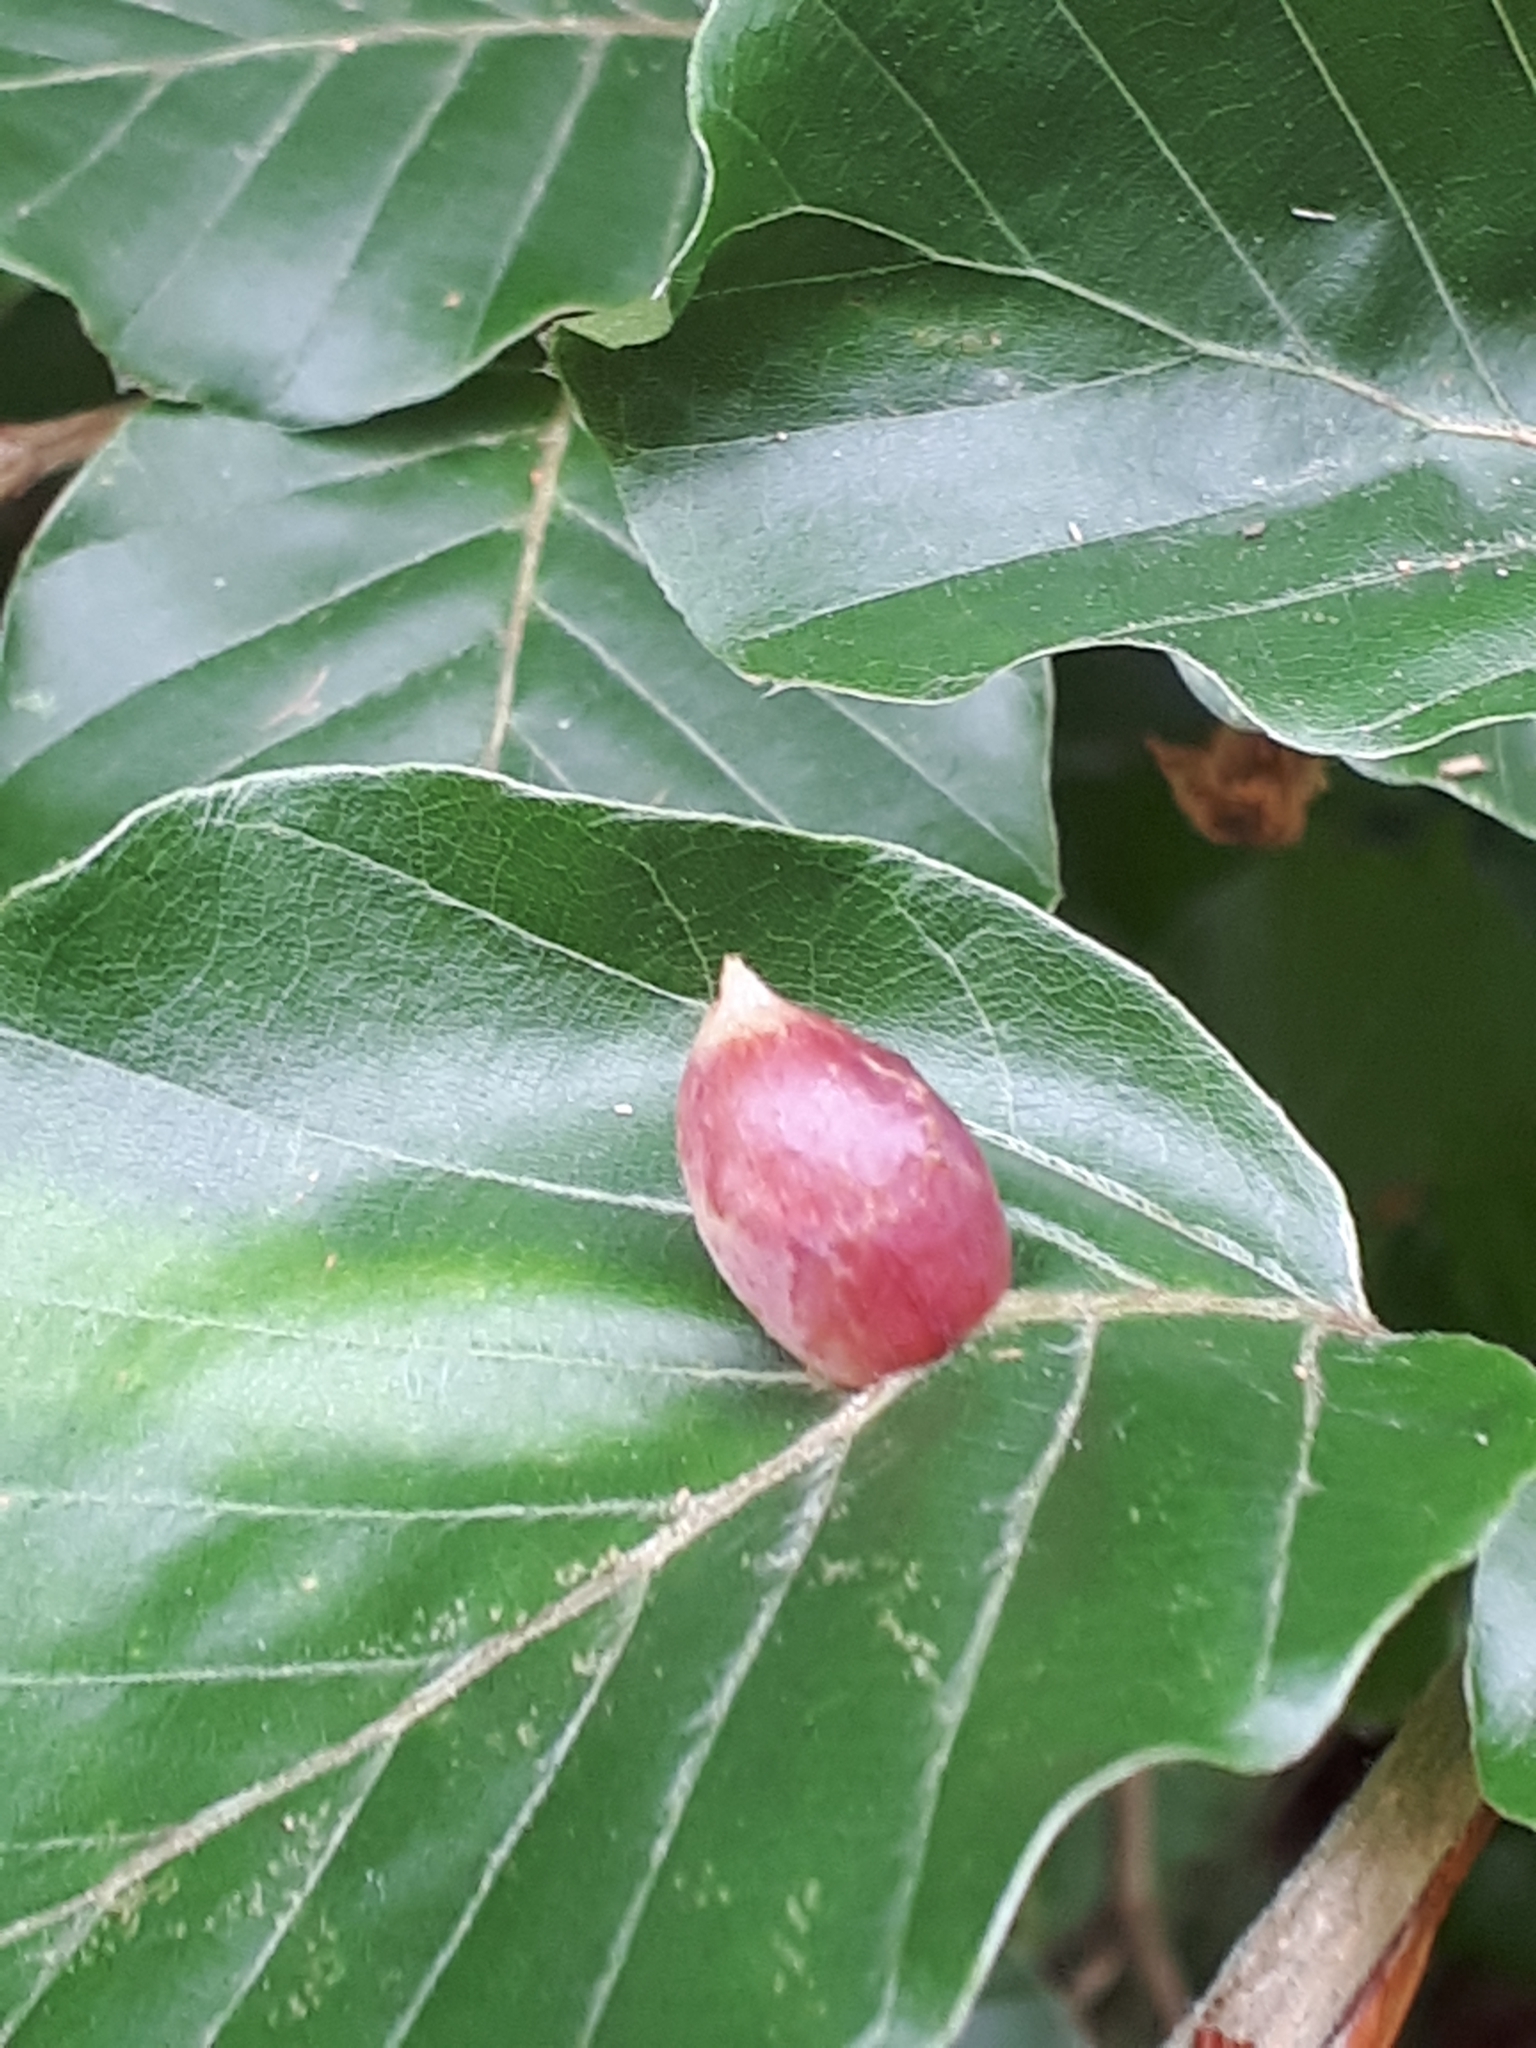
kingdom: Animalia
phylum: Arthropoda
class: Insecta
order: Diptera
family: Cecidomyiidae
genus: Mikiola
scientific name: Mikiola fagi
